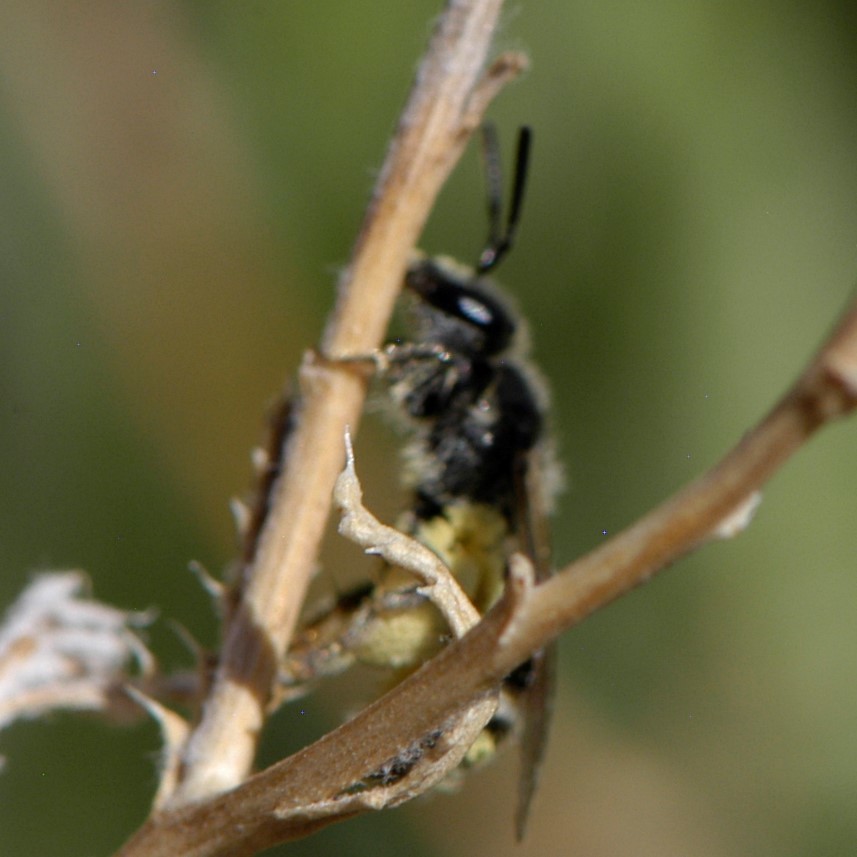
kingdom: Animalia
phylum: Arthropoda
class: Insecta
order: Hymenoptera
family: Halictidae
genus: Halictus
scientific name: Halictus tripartitus
